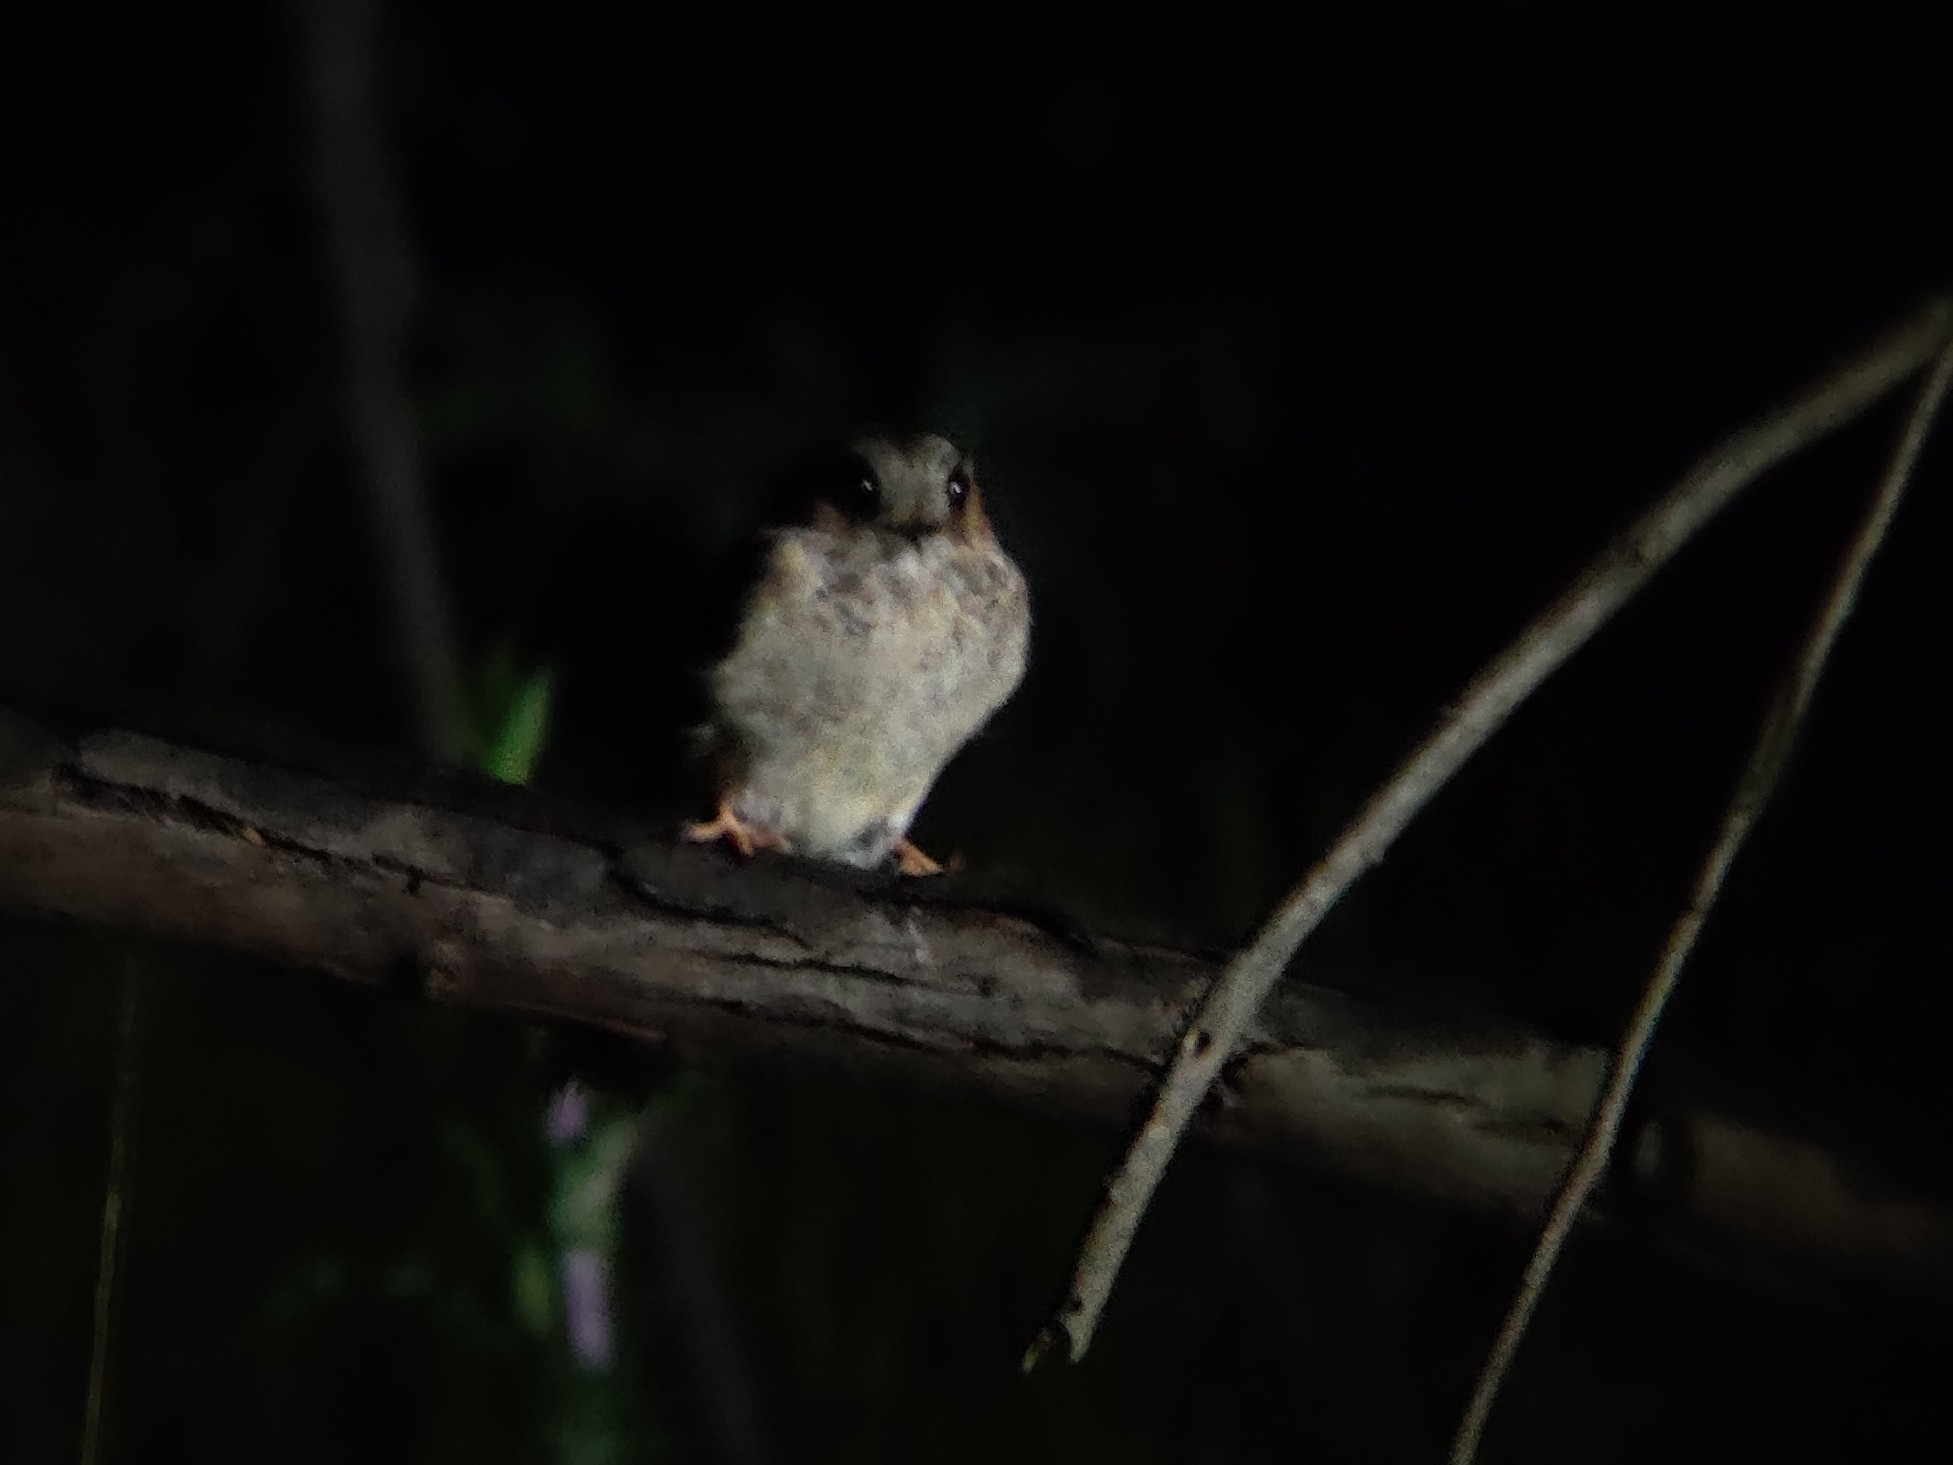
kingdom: Animalia
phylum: Chordata
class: Aves
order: Apodiformes
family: Aegothelidae
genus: Aegotheles
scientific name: Aegotheles cristatus
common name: Australian owlet-nightjar
